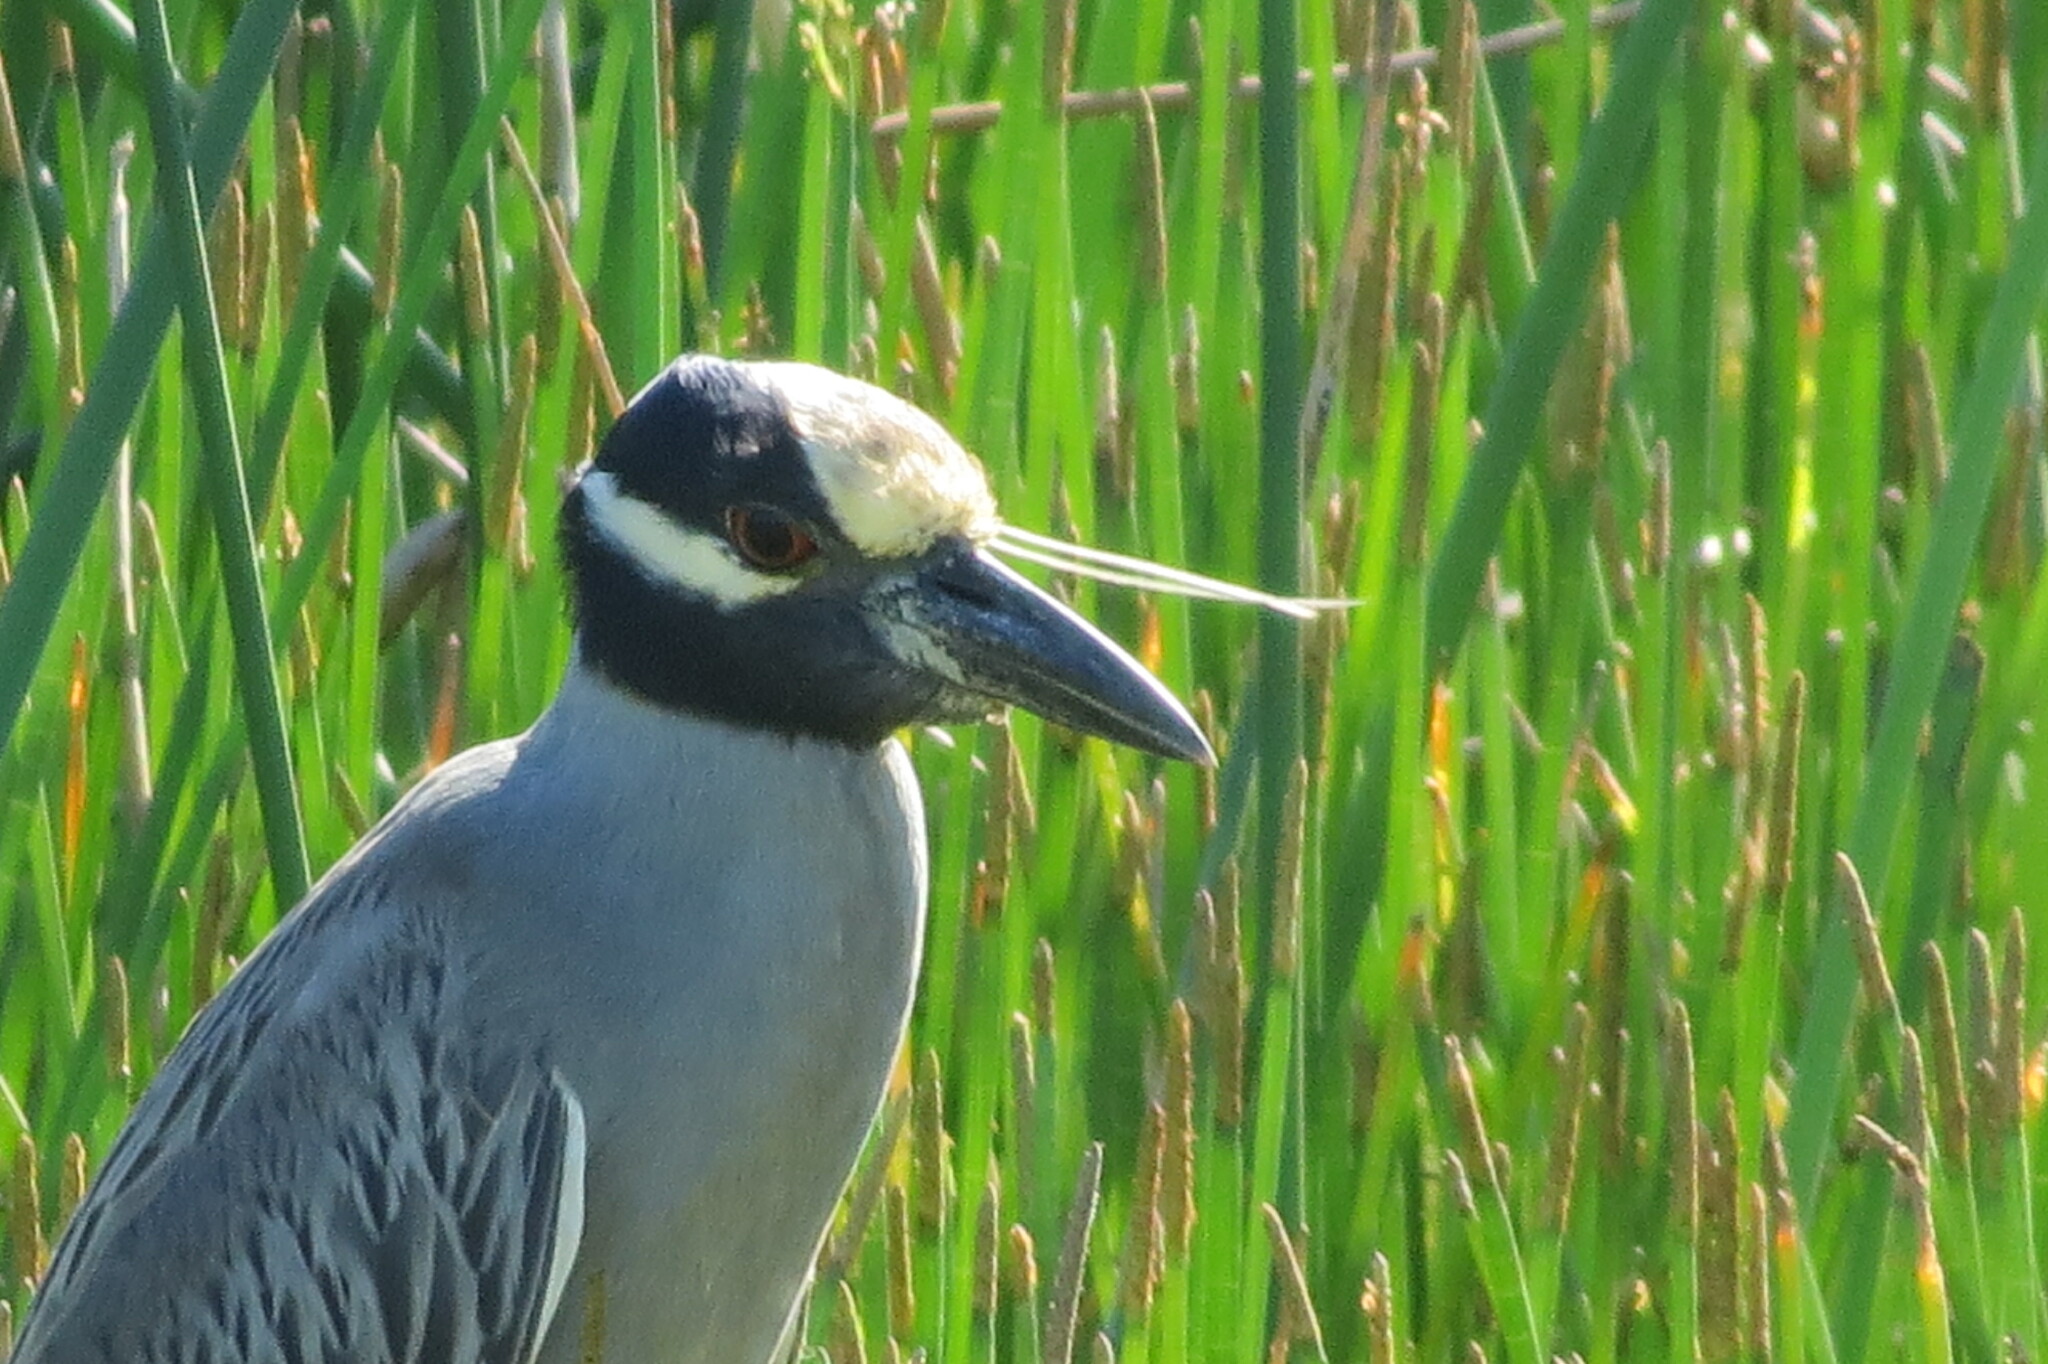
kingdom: Animalia
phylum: Chordata
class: Aves
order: Pelecaniformes
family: Ardeidae
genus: Nyctanassa
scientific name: Nyctanassa violacea
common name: Yellow-crowned night heron
